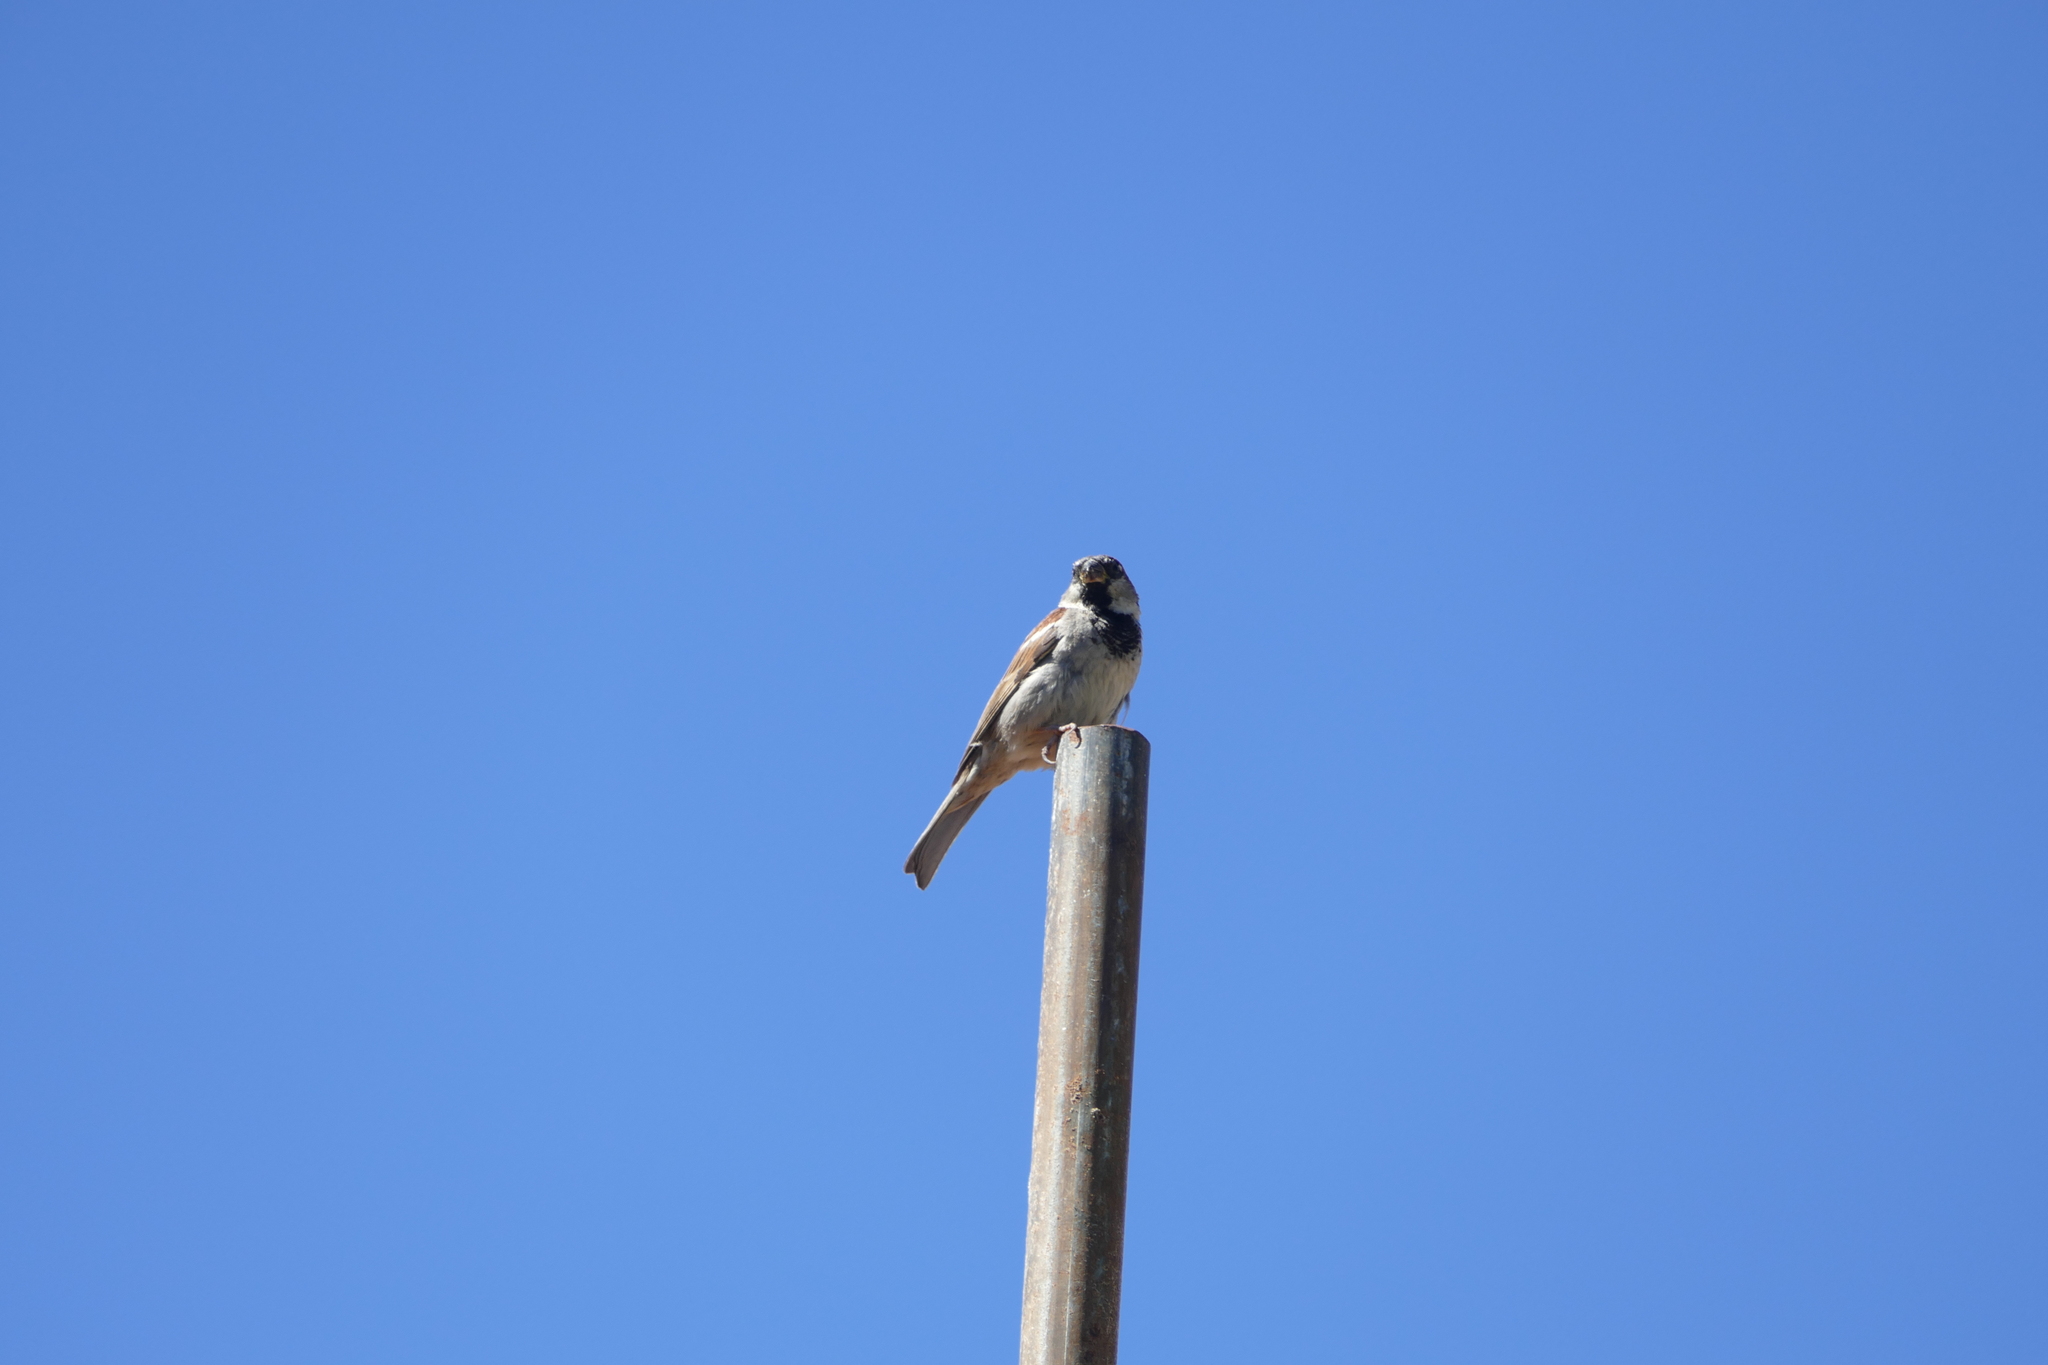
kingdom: Animalia
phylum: Chordata
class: Aves
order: Passeriformes
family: Passeridae
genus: Passer
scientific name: Passer domesticus
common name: House sparrow
